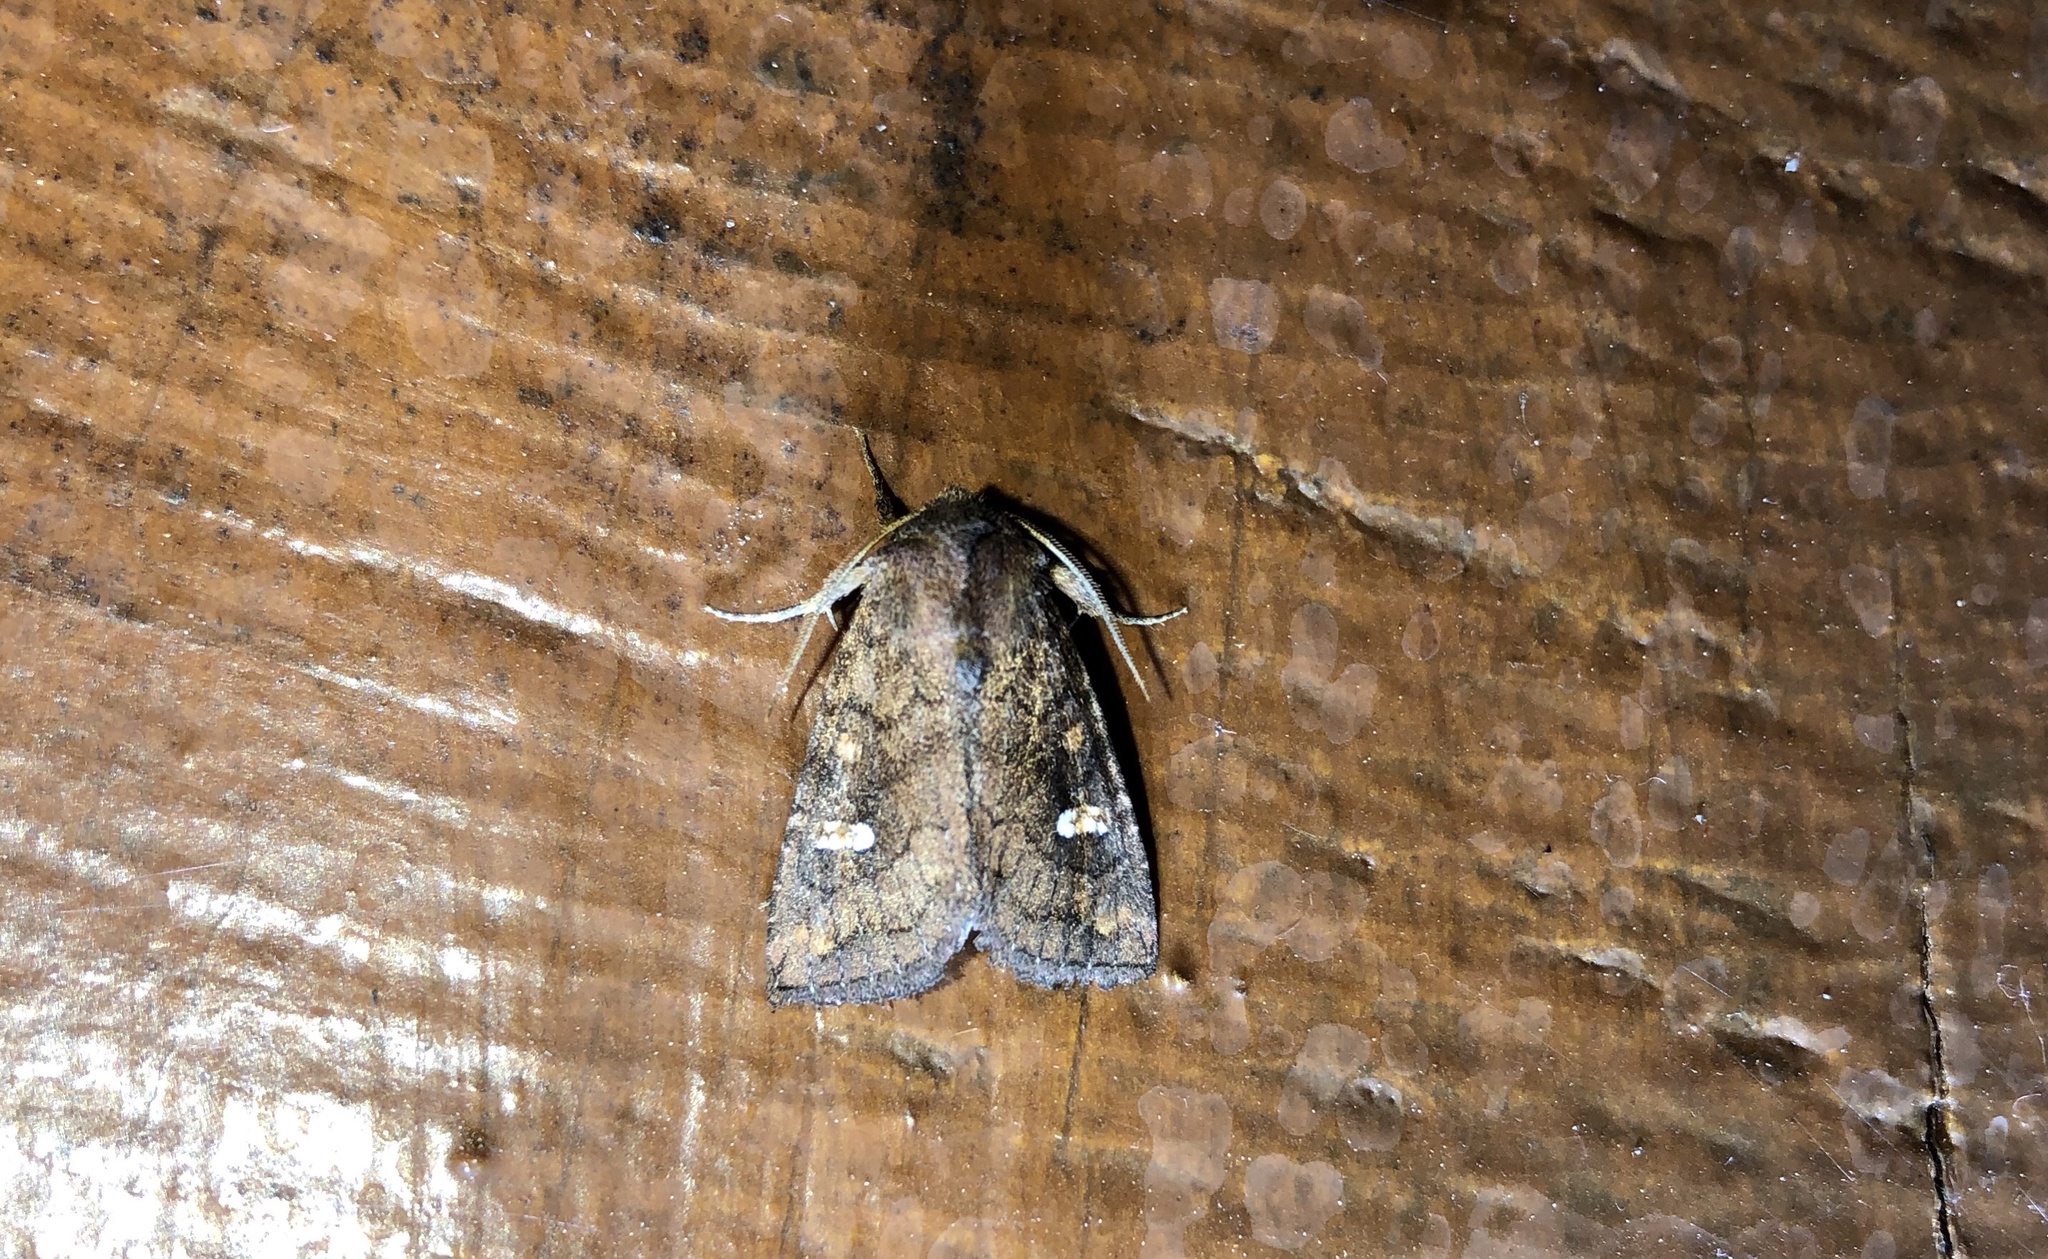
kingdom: Animalia
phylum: Arthropoda
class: Insecta
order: Lepidoptera
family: Noctuidae
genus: Tricholita
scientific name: Tricholita signata
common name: Signate quaker
